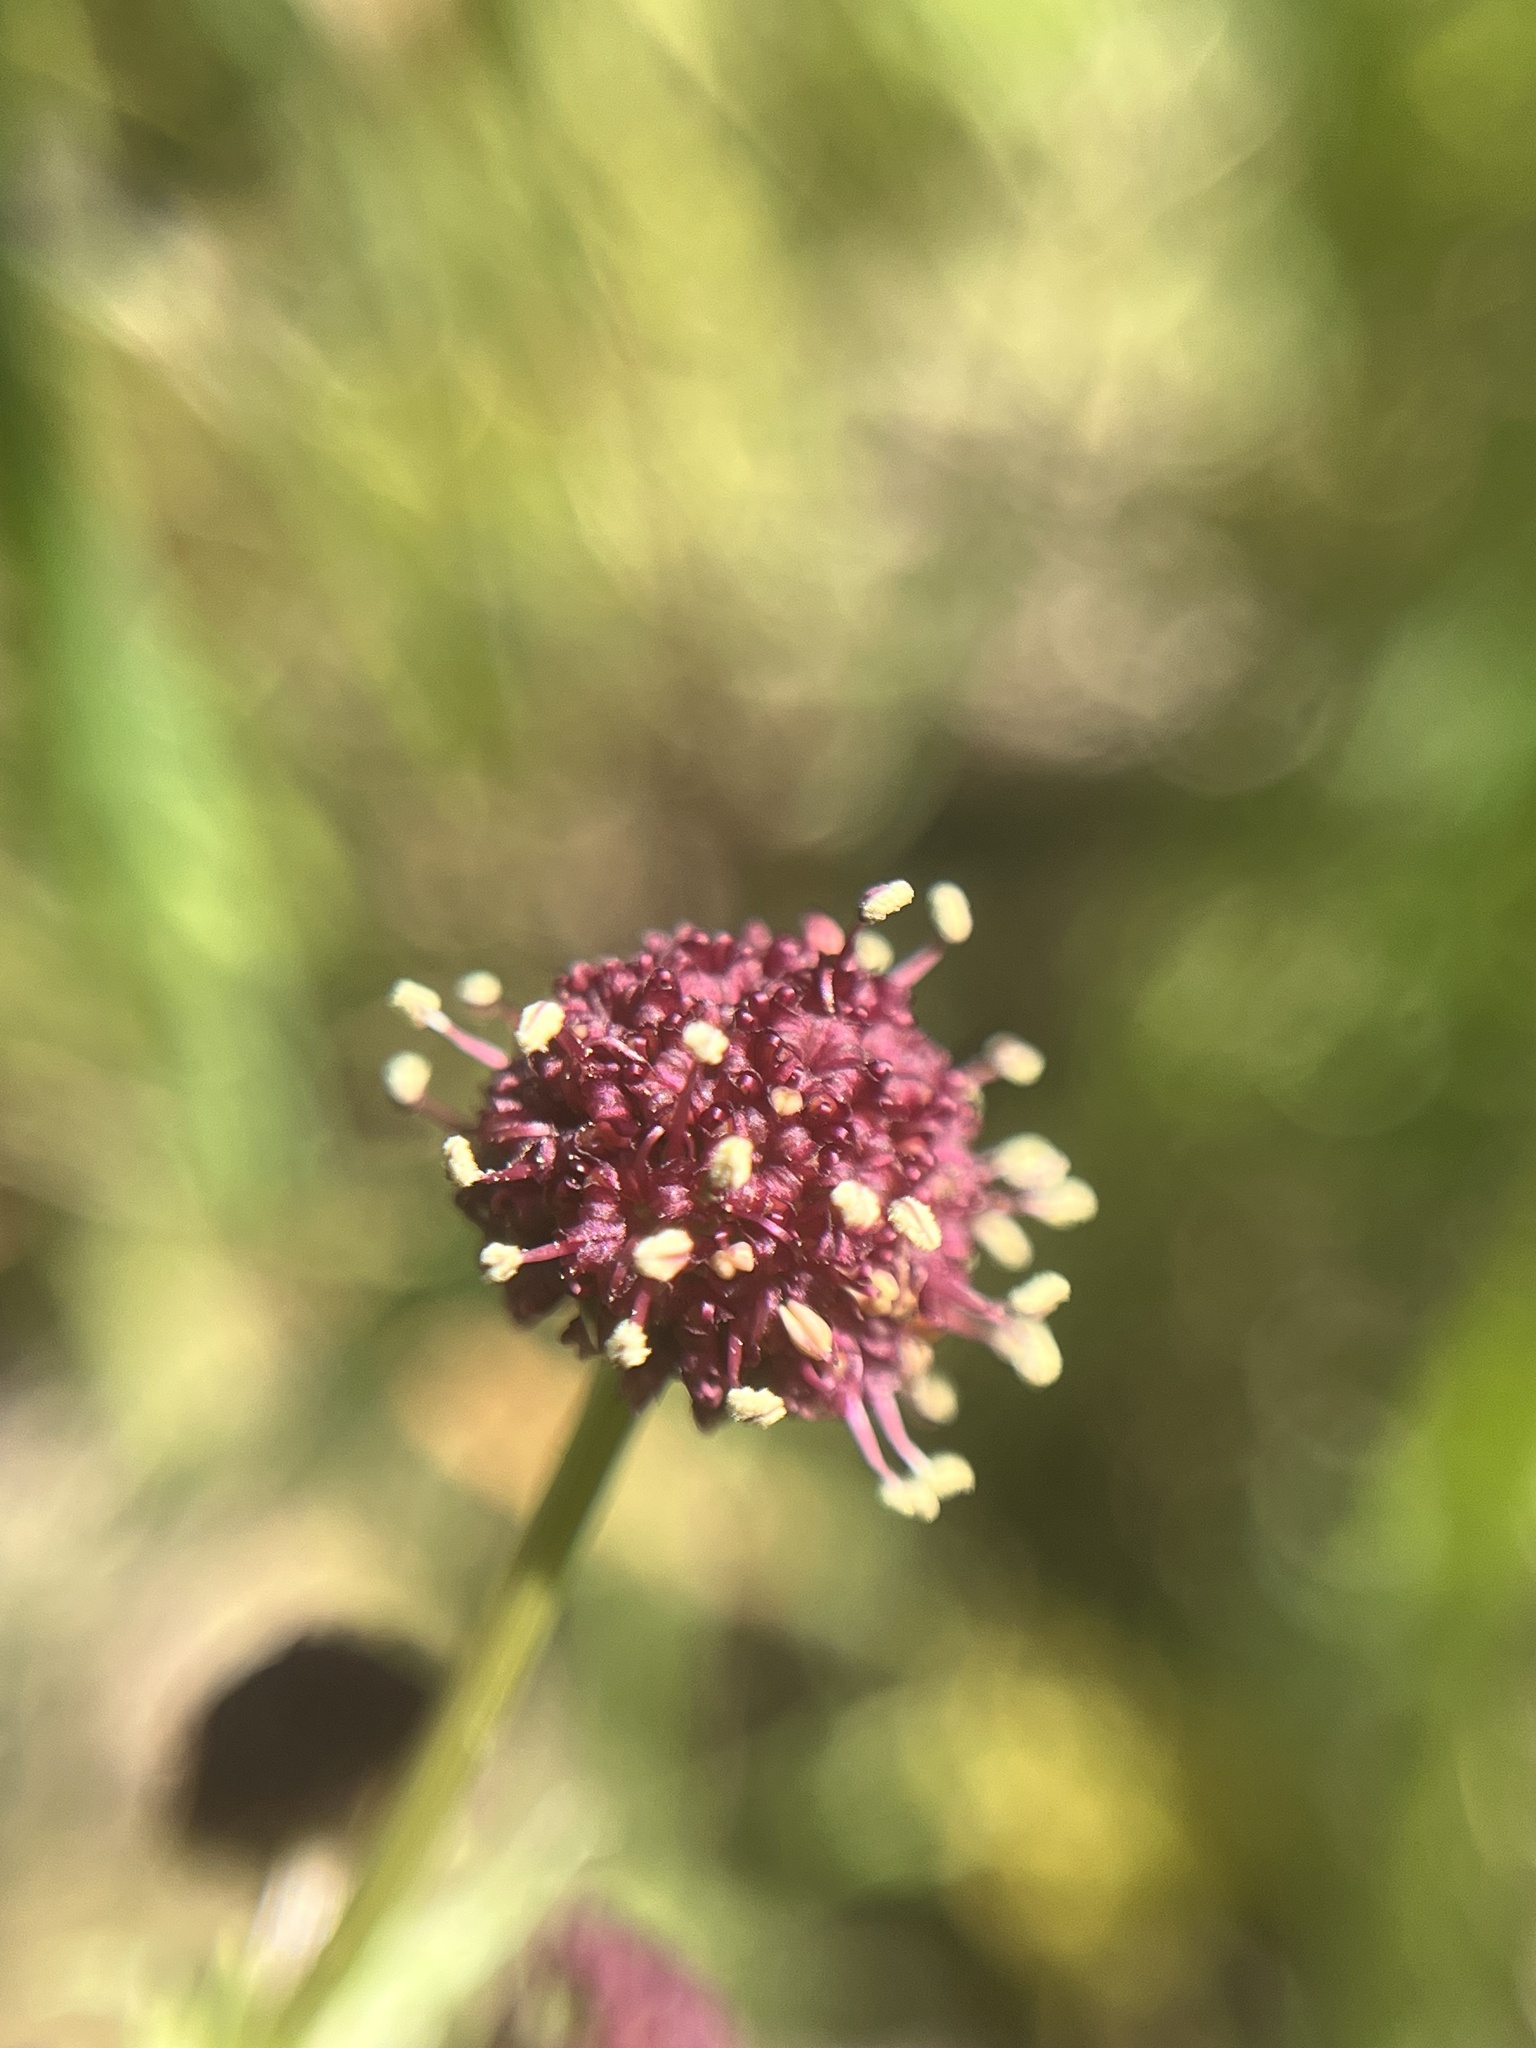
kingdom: Plantae
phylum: Tracheophyta
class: Magnoliopsida
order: Apiales
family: Apiaceae
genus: Sanicula
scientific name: Sanicula bipinnatifida
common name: Shoe-buttons
